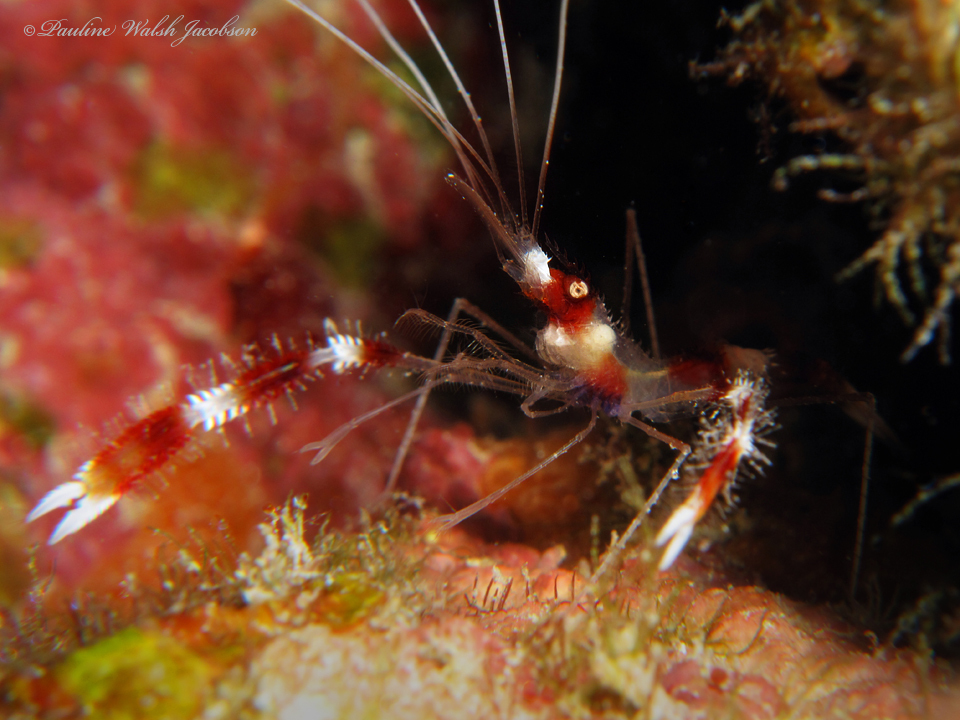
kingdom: Animalia
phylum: Arthropoda
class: Malacostraca
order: Decapoda
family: Stenopodidae
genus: Stenopus
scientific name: Stenopus hispidus
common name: Banded coral shrimp
